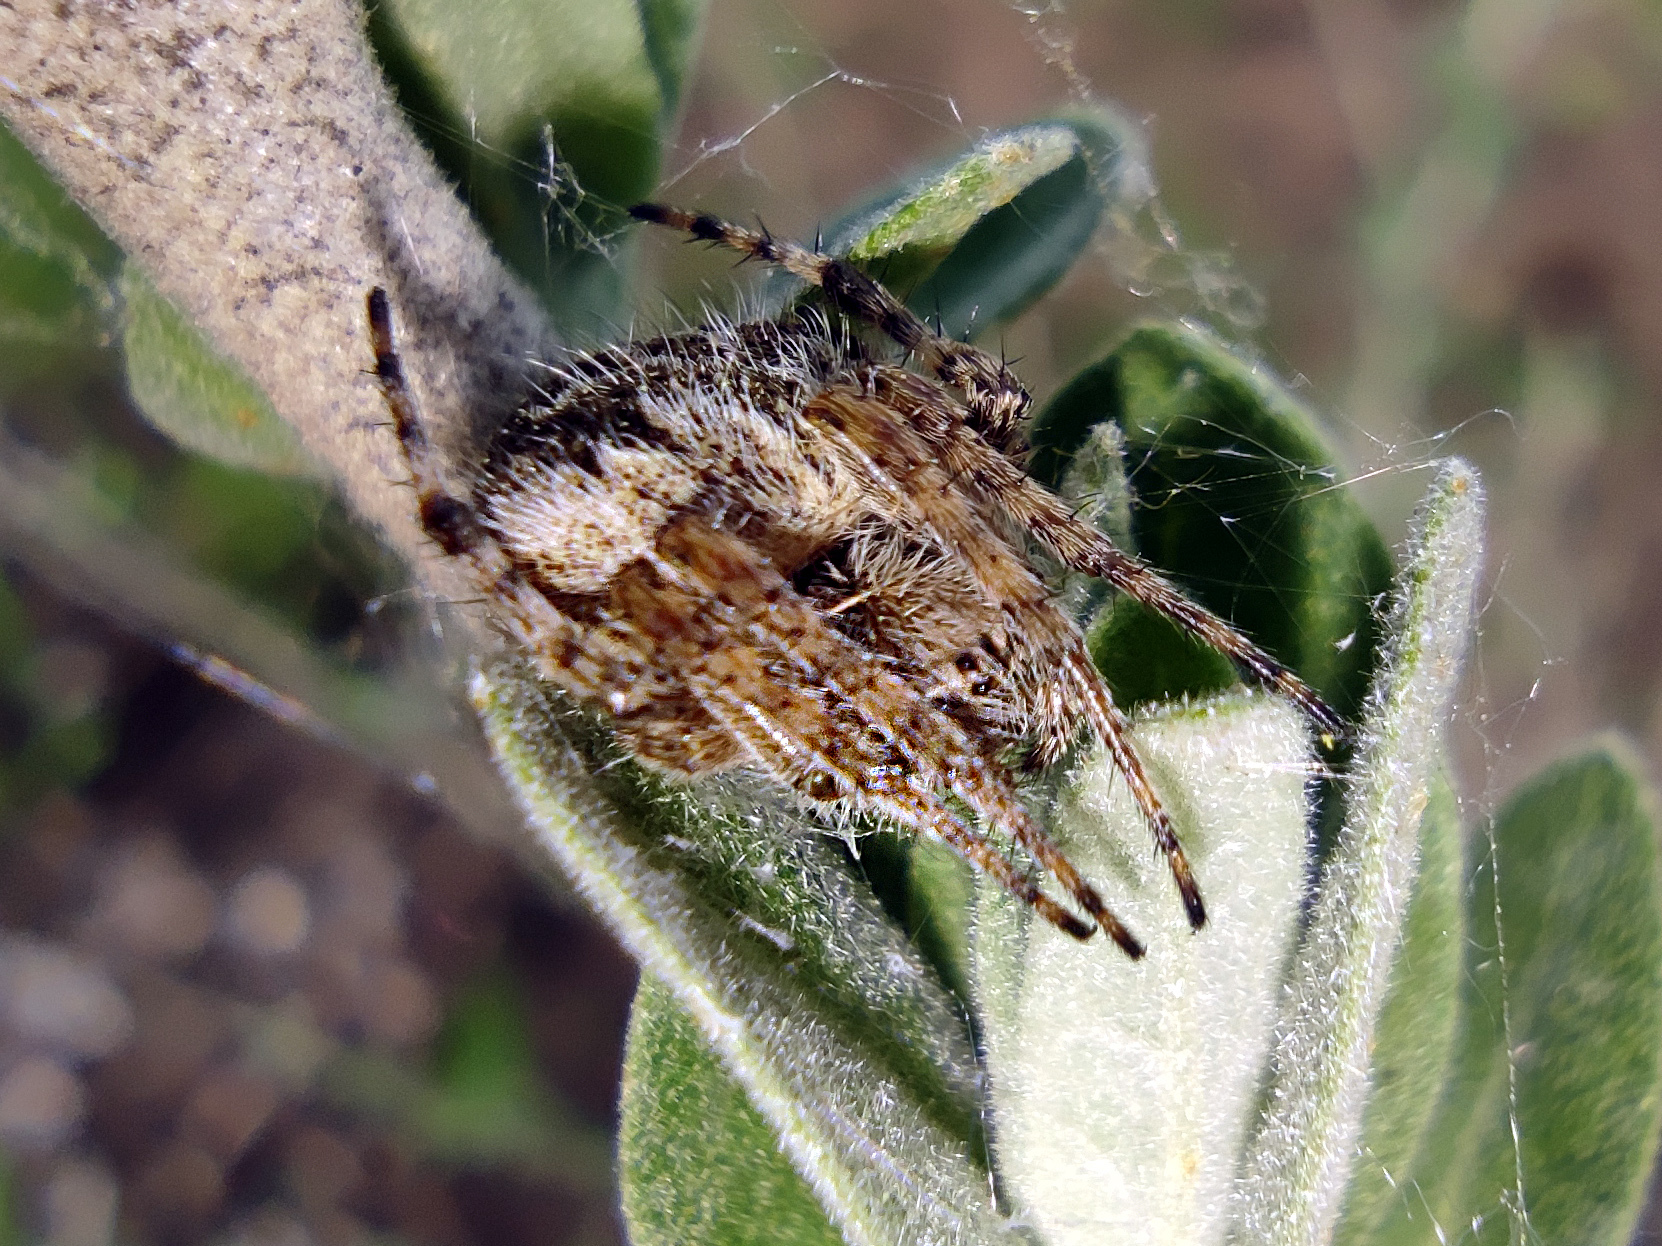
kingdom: Animalia
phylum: Arthropoda
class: Arachnida
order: Araneae
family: Araneidae
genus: Agalenatea
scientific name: Agalenatea redii
